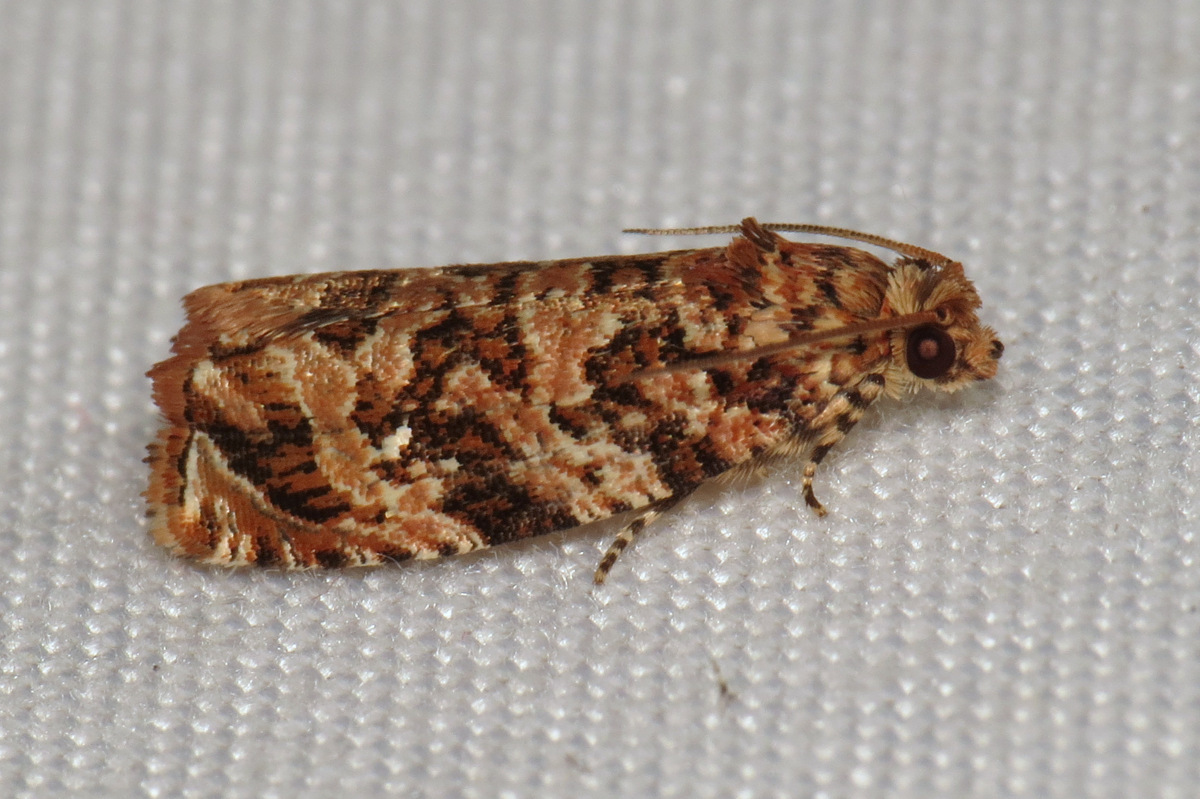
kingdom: Animalia
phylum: Arthropoda
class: Insecta
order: Lepidoptera
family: Tortricidae
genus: Phaecasiophora
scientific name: Phaecasiophora niveiguttana
